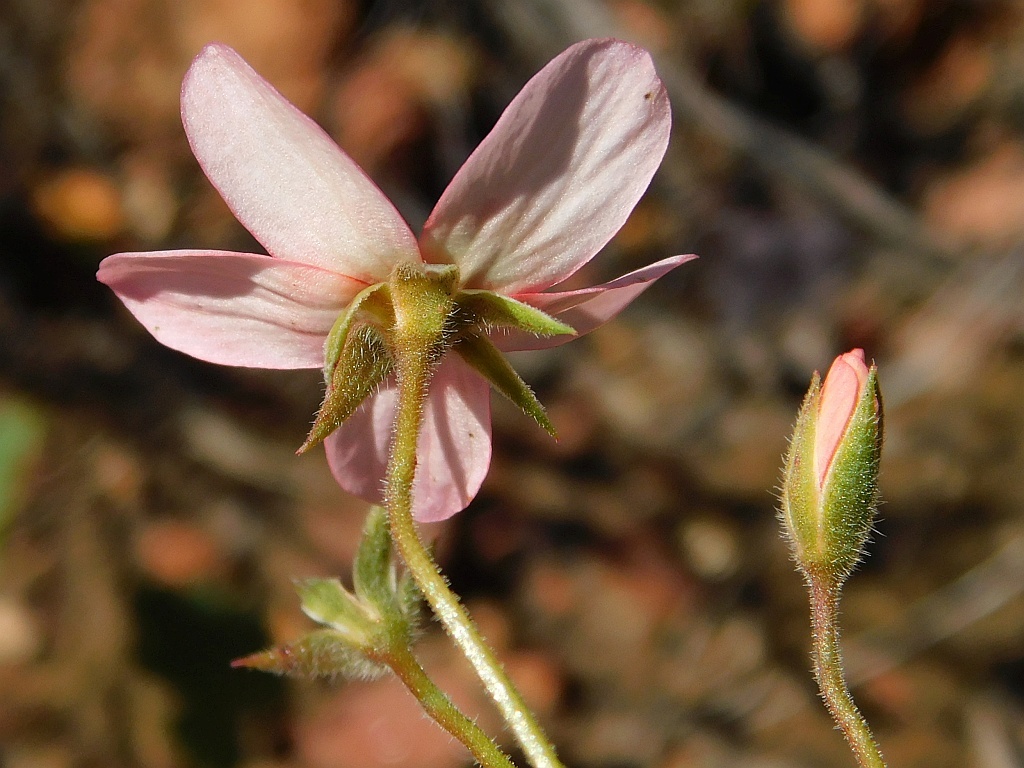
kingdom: Plantae
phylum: Tracheophyta
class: Magnoliopsida
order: Geraniales
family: Geraniaceae
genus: Pelargonium
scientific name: Pelargonium incarnatum
